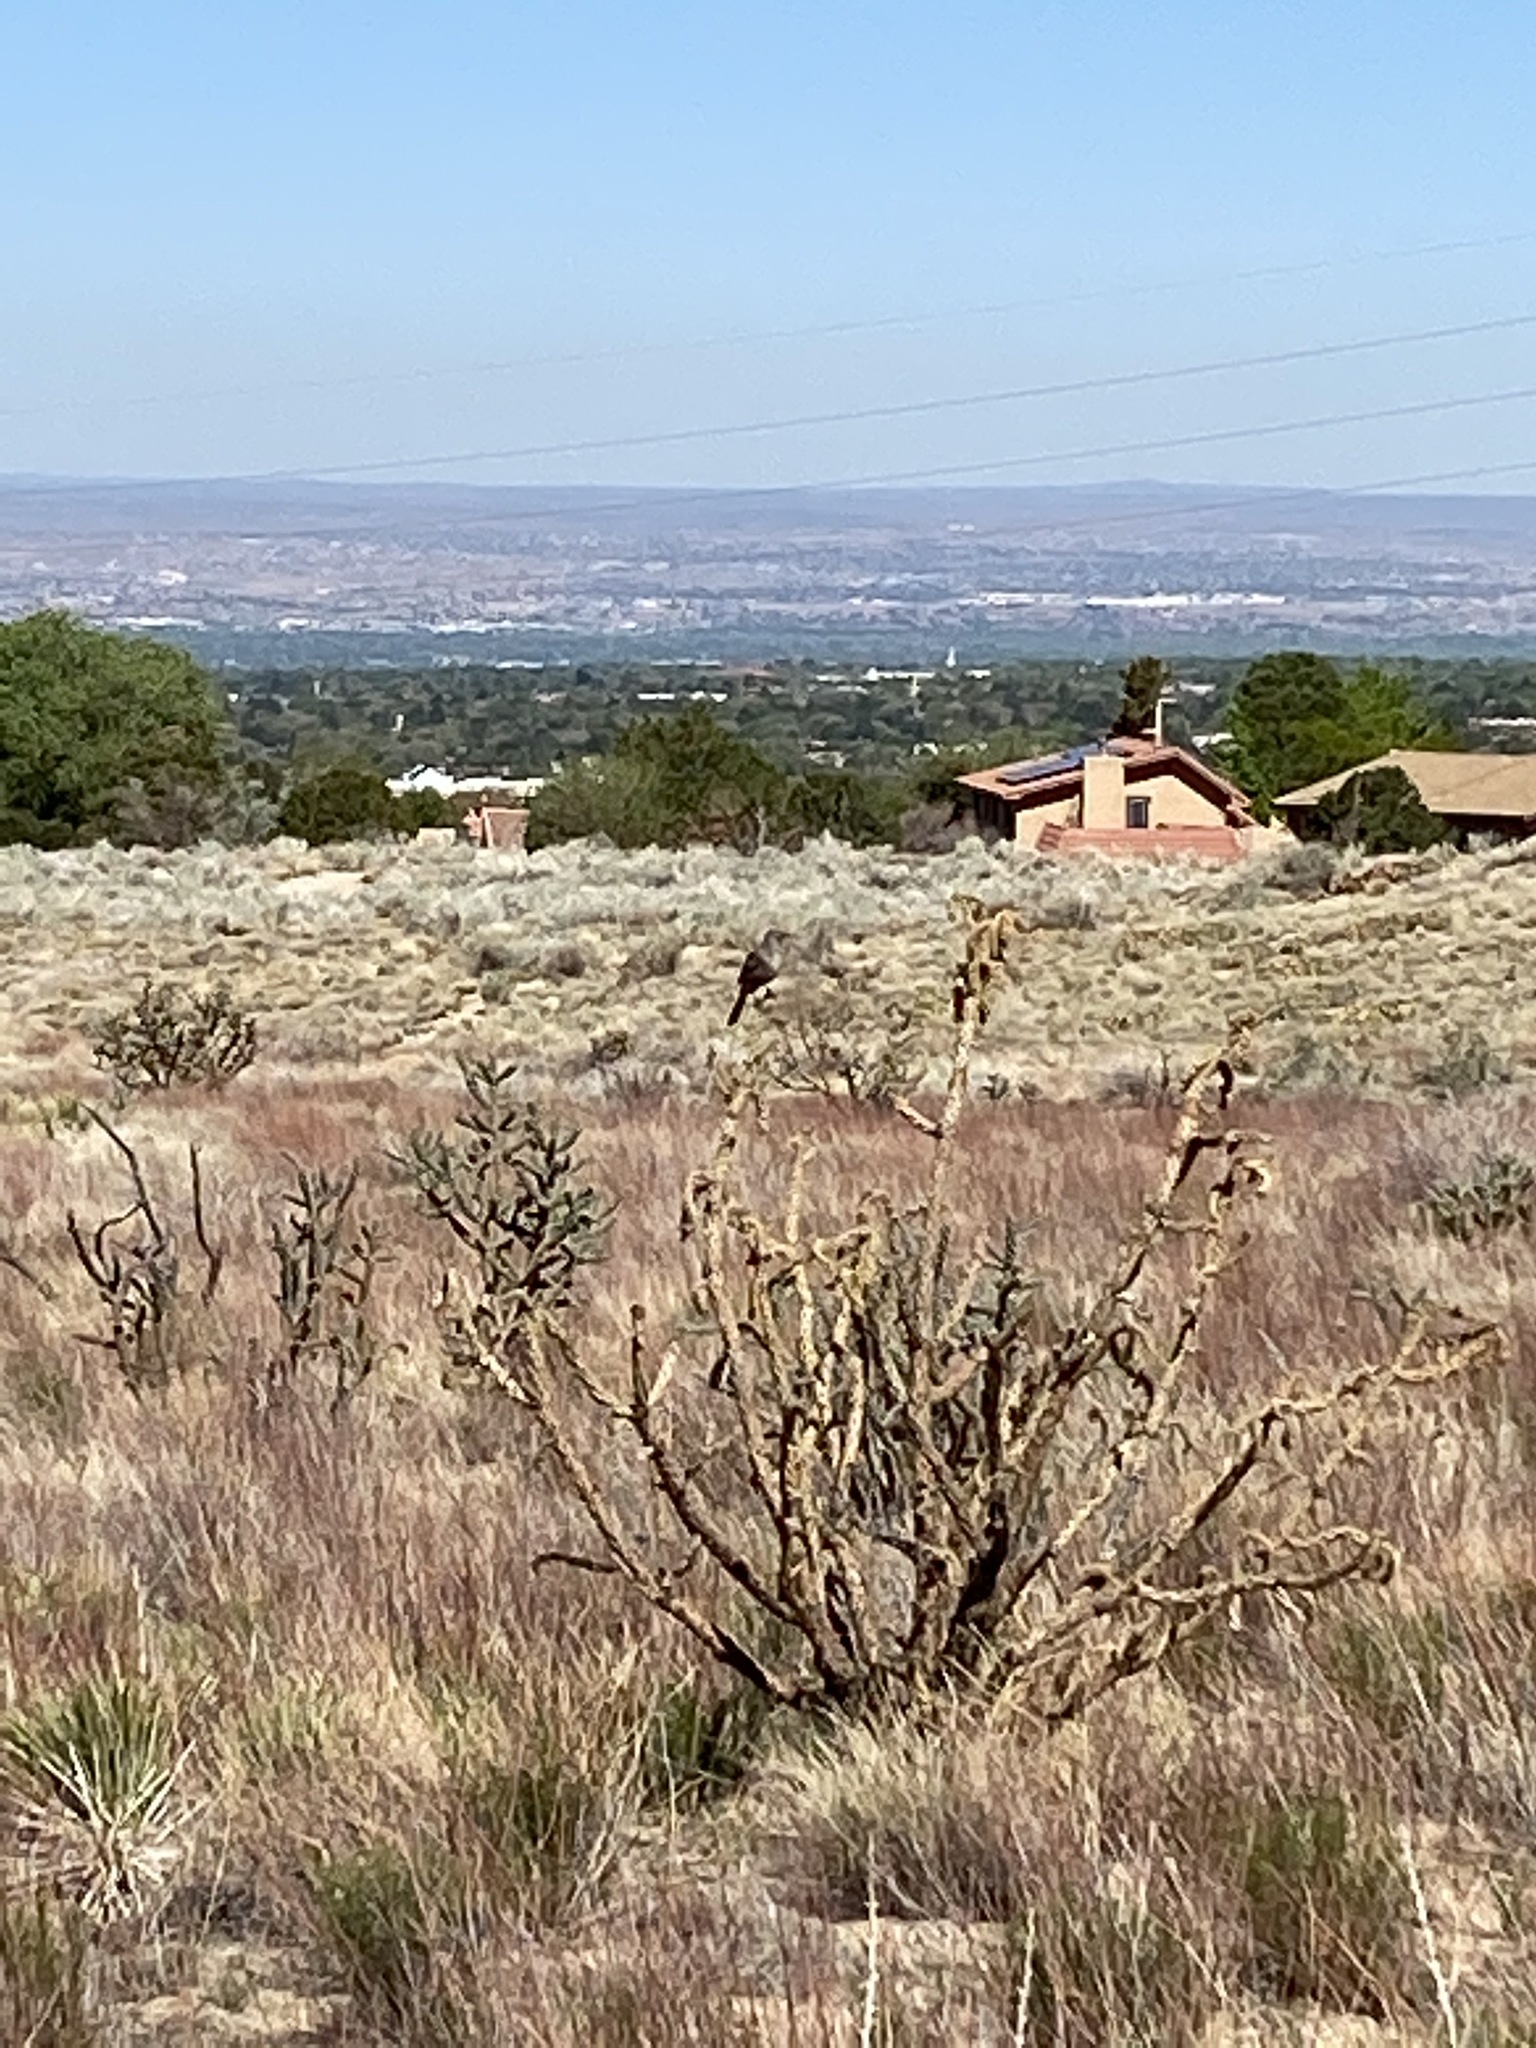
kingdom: Animalia
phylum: Chordata
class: Aves
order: Passeriformes
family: Mimidae
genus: Toxostoma
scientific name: Toxostoma curvirostre
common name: Curve-billed thrasher
